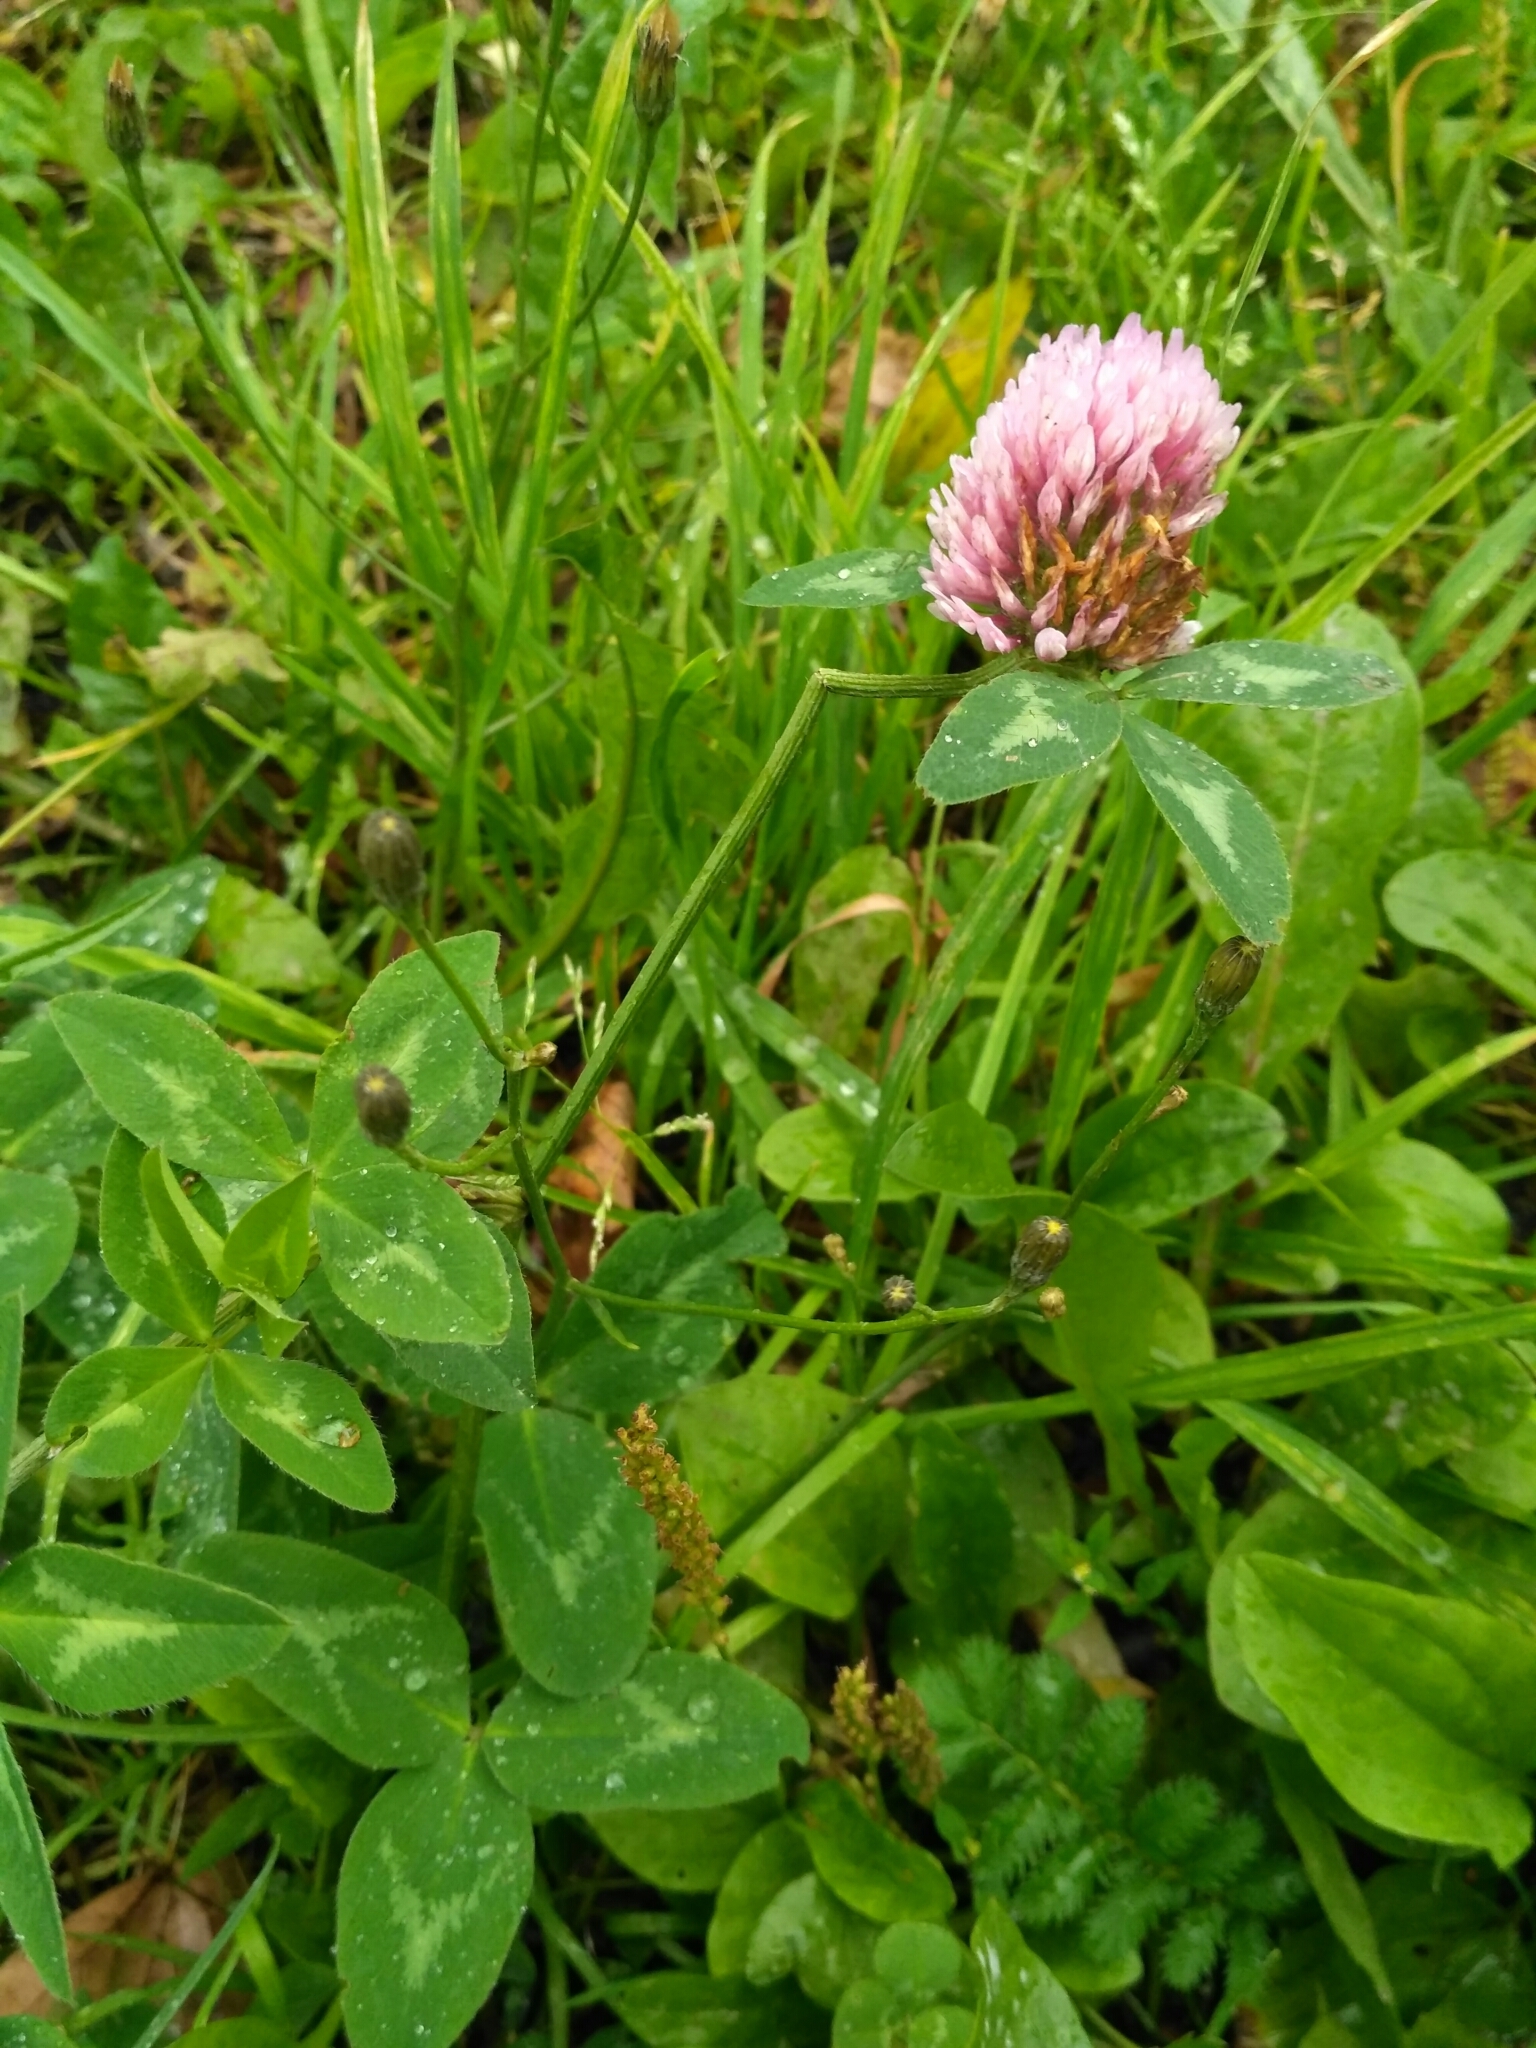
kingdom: Plantae
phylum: Tracheophyta
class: Magnoliopsida
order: Fabales
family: Fabaceae
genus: Trifolium
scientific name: Trifolium pratense
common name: Red clover
